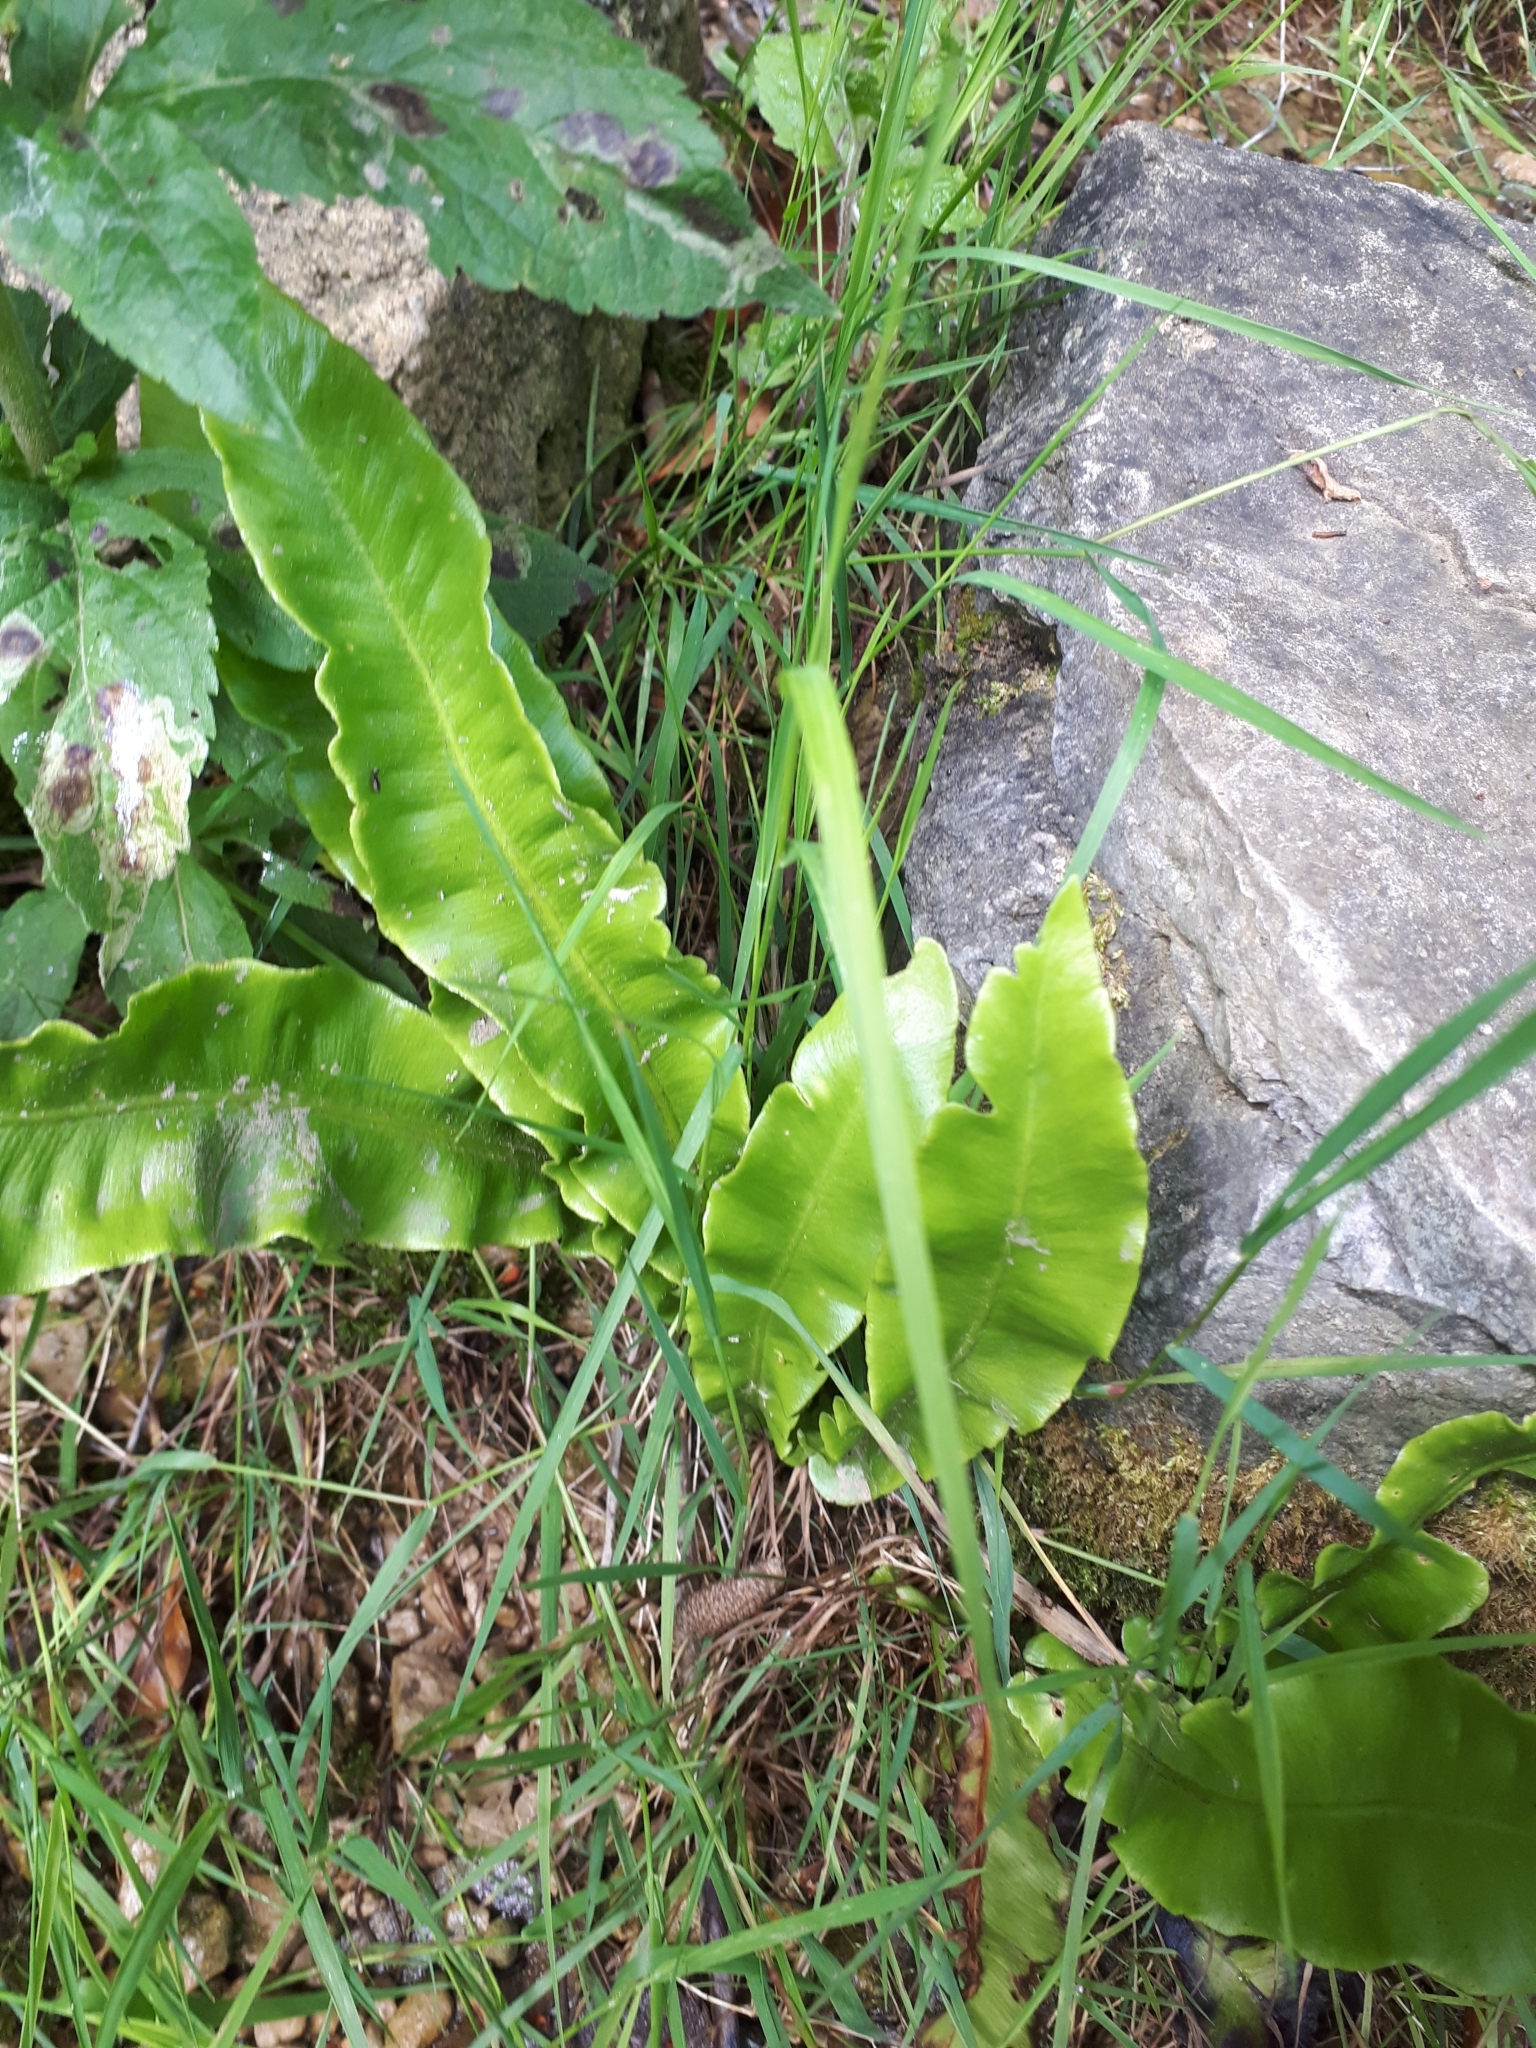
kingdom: Plantae
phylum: Tracheophyta
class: Polypodiopsida
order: Polypodiales
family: Aspleniaceae
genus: Asplenium
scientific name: Asplenium scolopendrium
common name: Hart's-tongue fern
